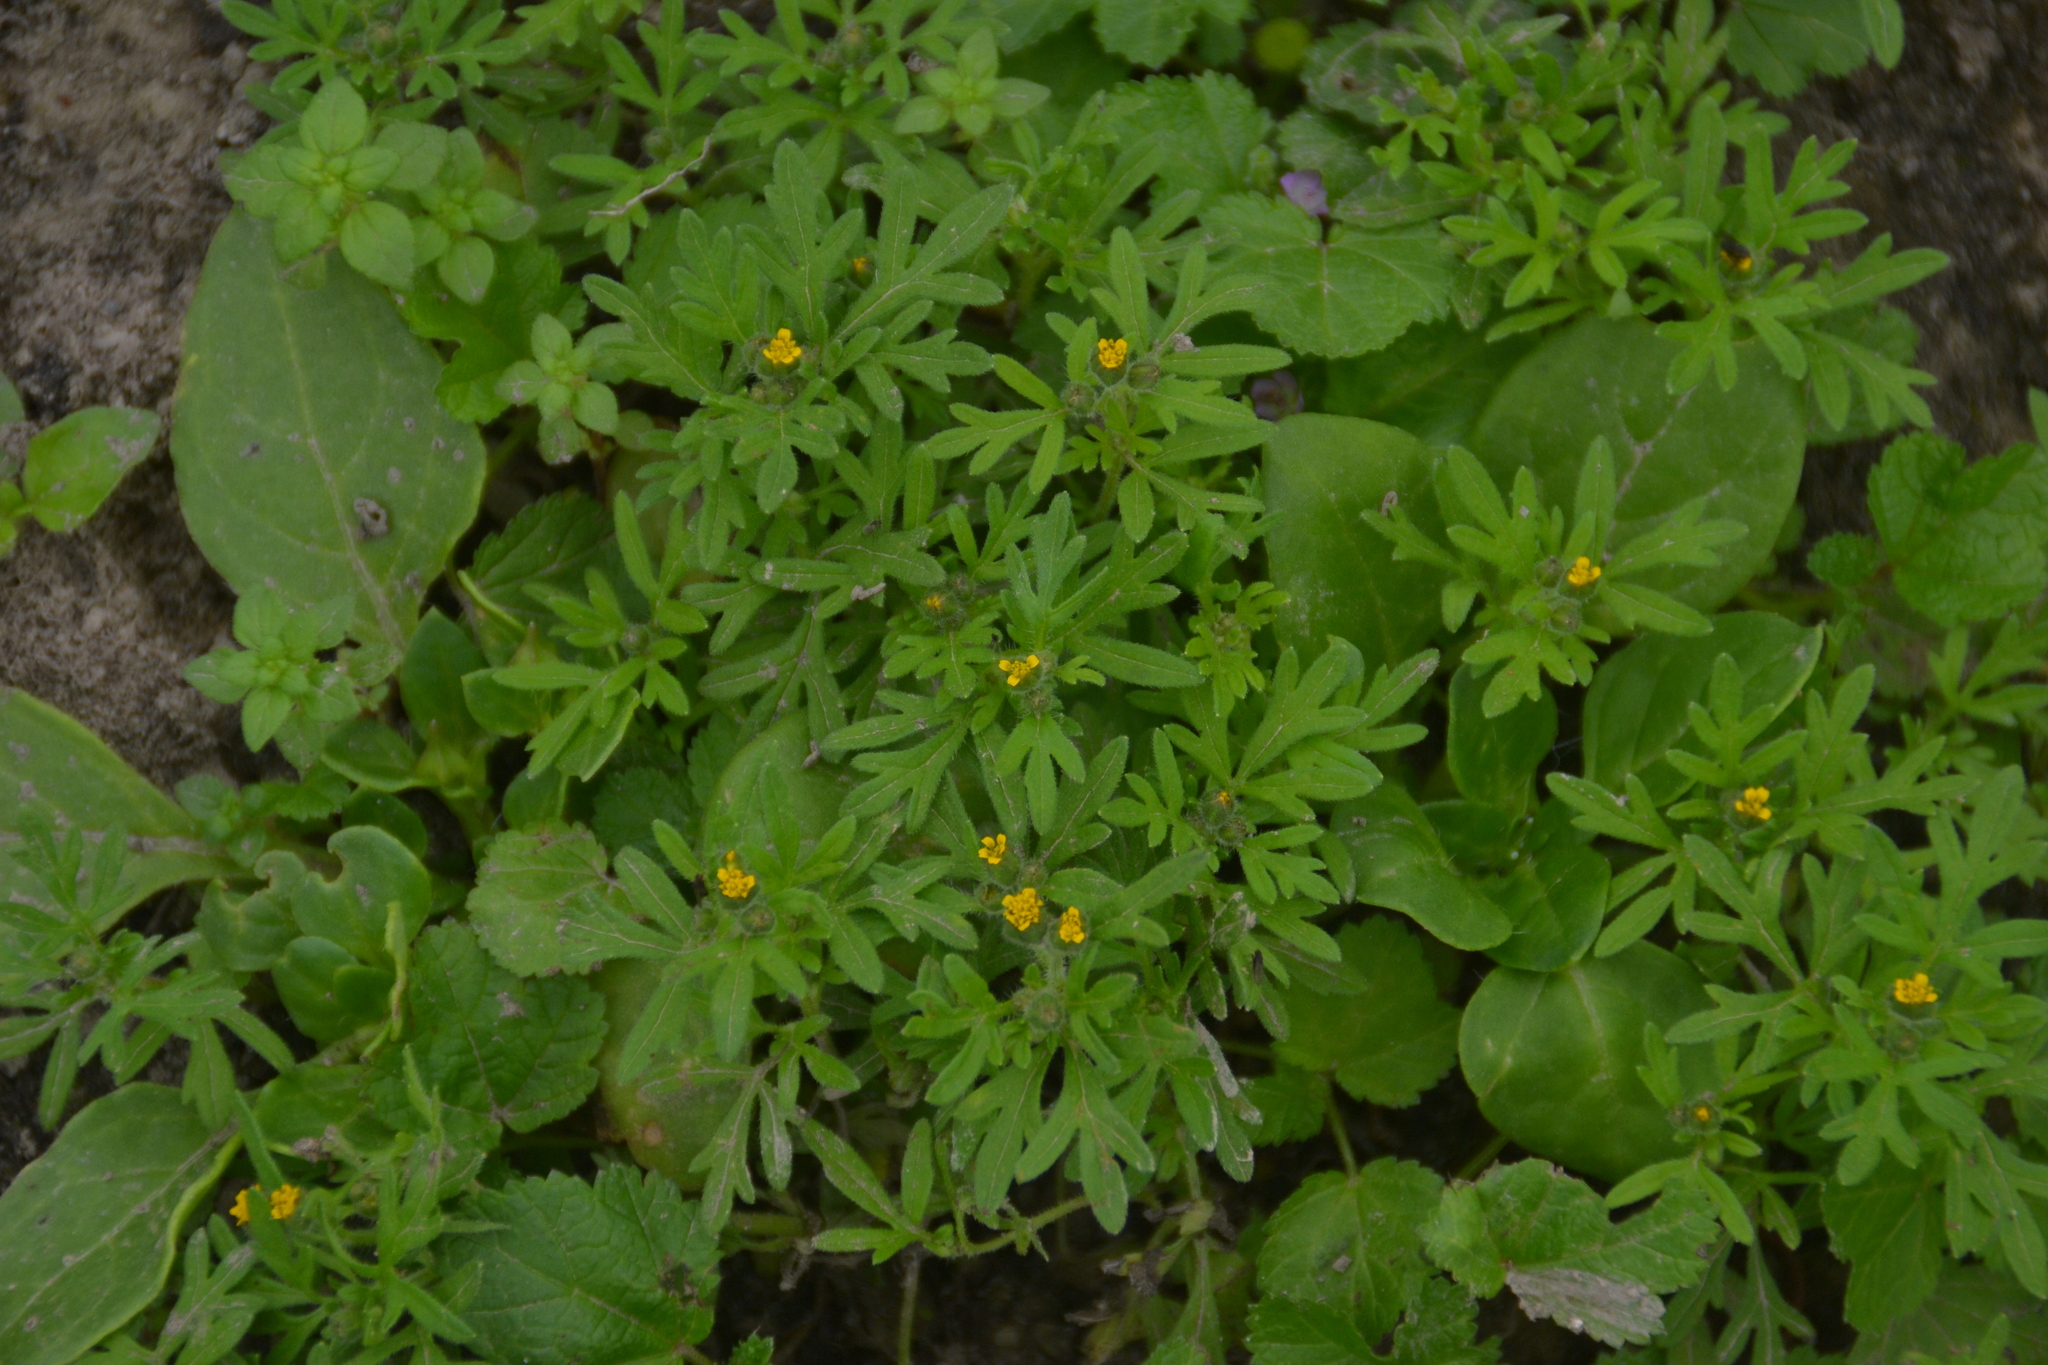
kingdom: Plantae
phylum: Tracheophyta
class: Magnoliopsida
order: Asterales
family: Asteraceae
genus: Villanova
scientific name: Villanova oppositifolia
